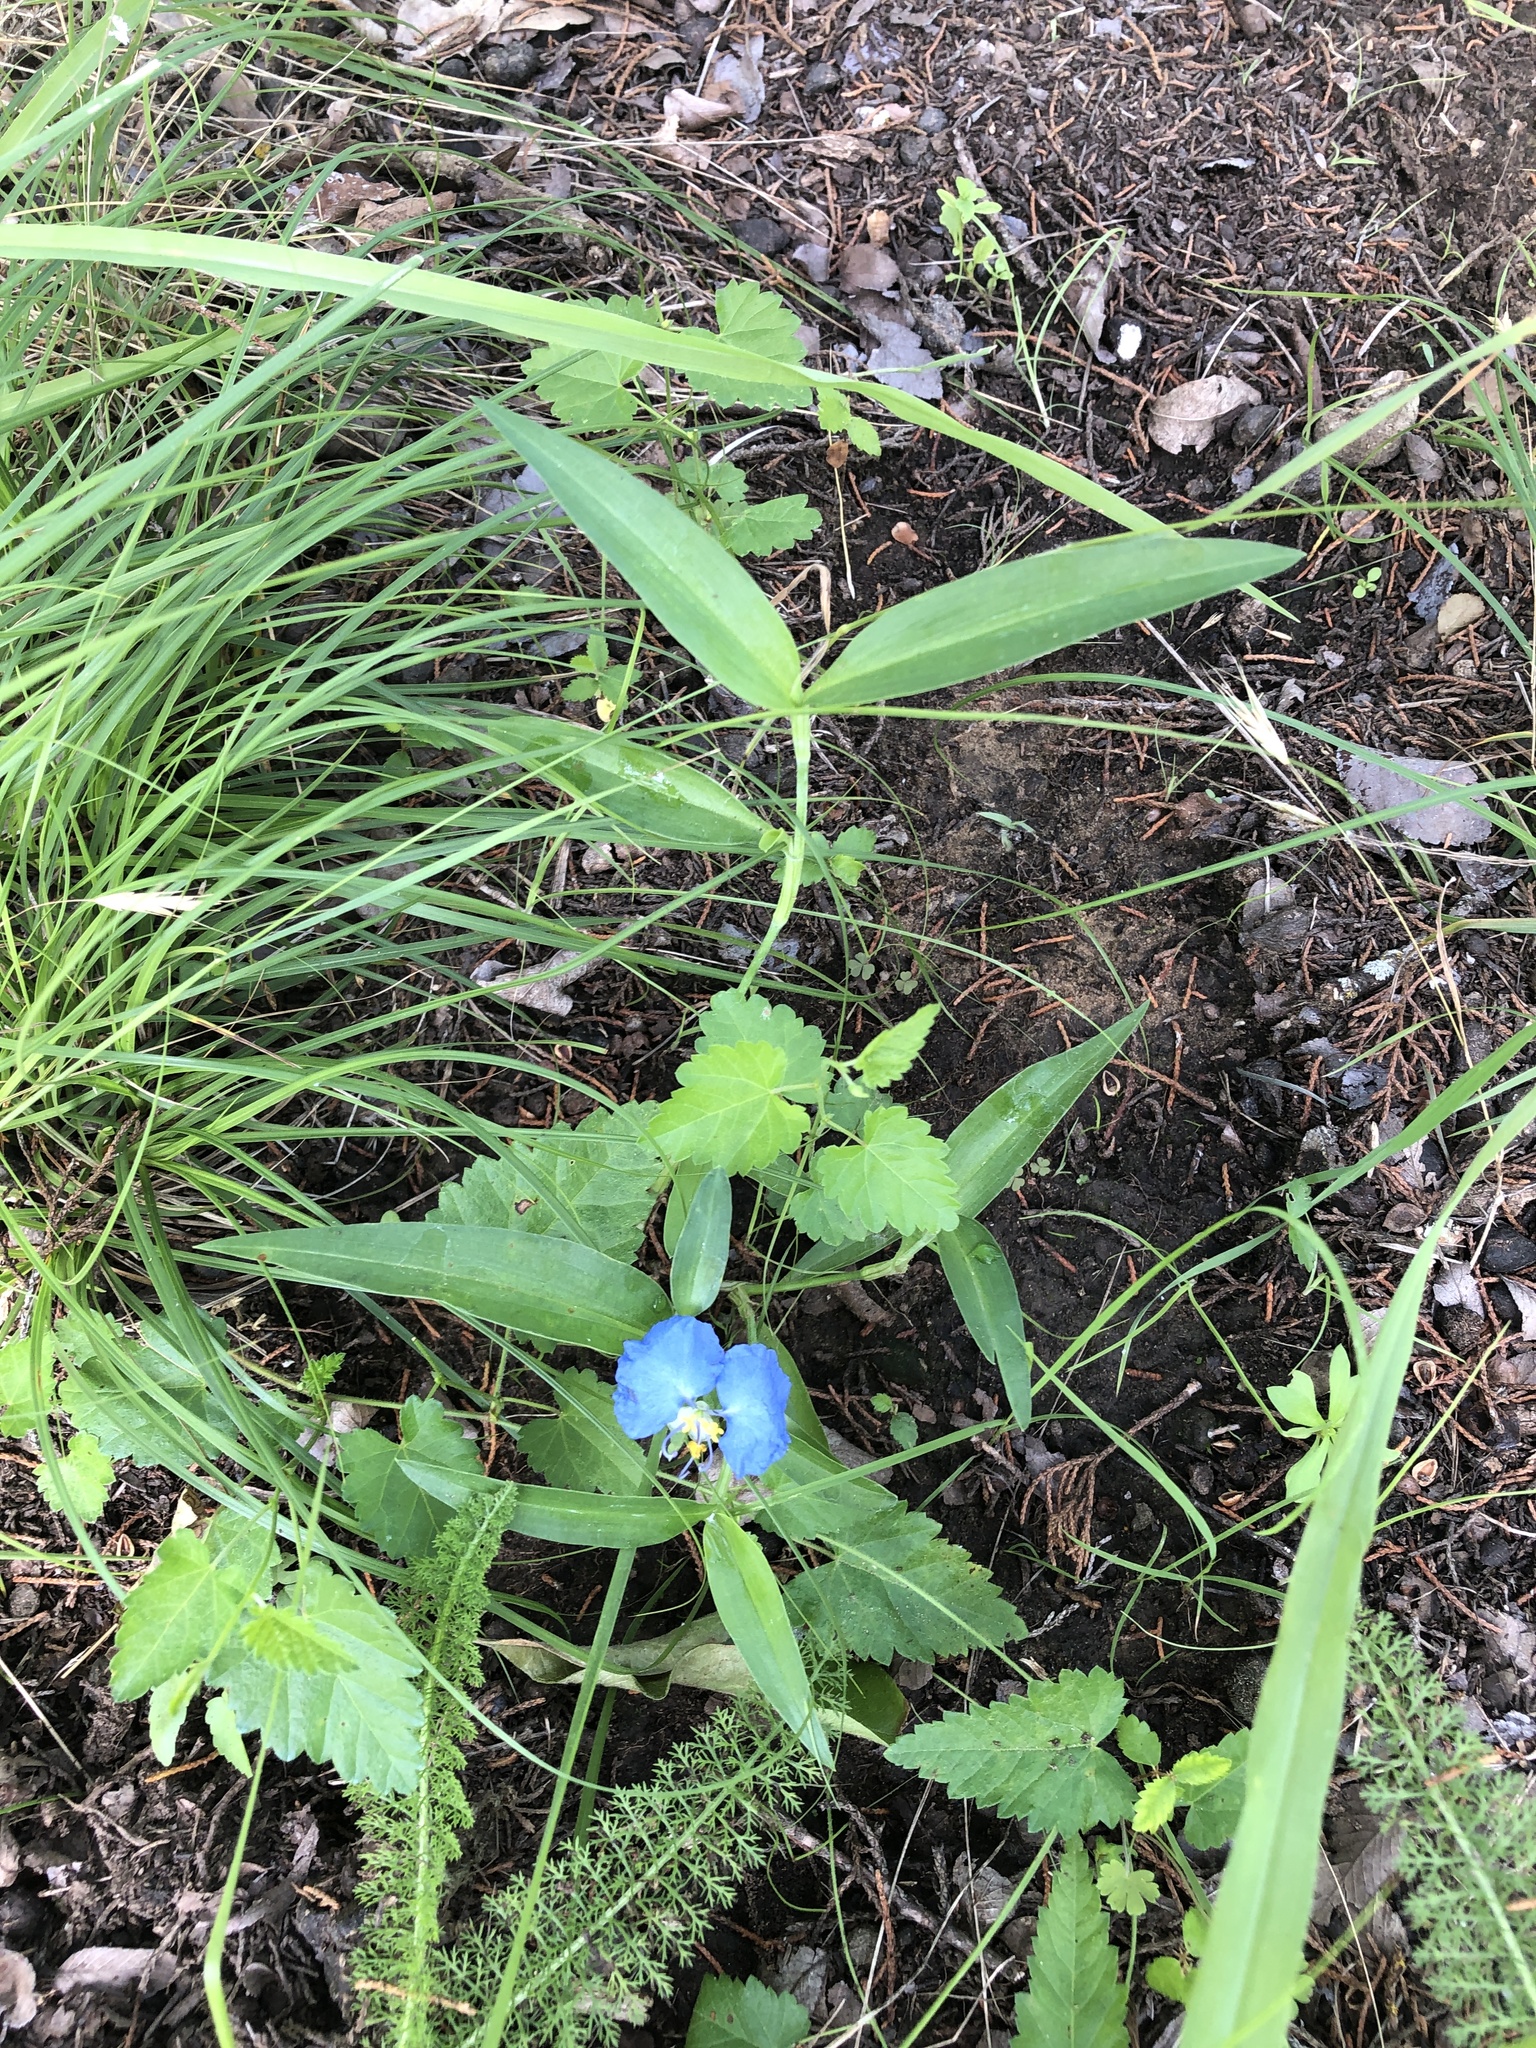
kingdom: Plantae
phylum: Tracheophyta
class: Liliopsida
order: Commelinales
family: Commelinaceae
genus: Commelina
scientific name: Commelina erecta
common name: Blousel blommetjie
